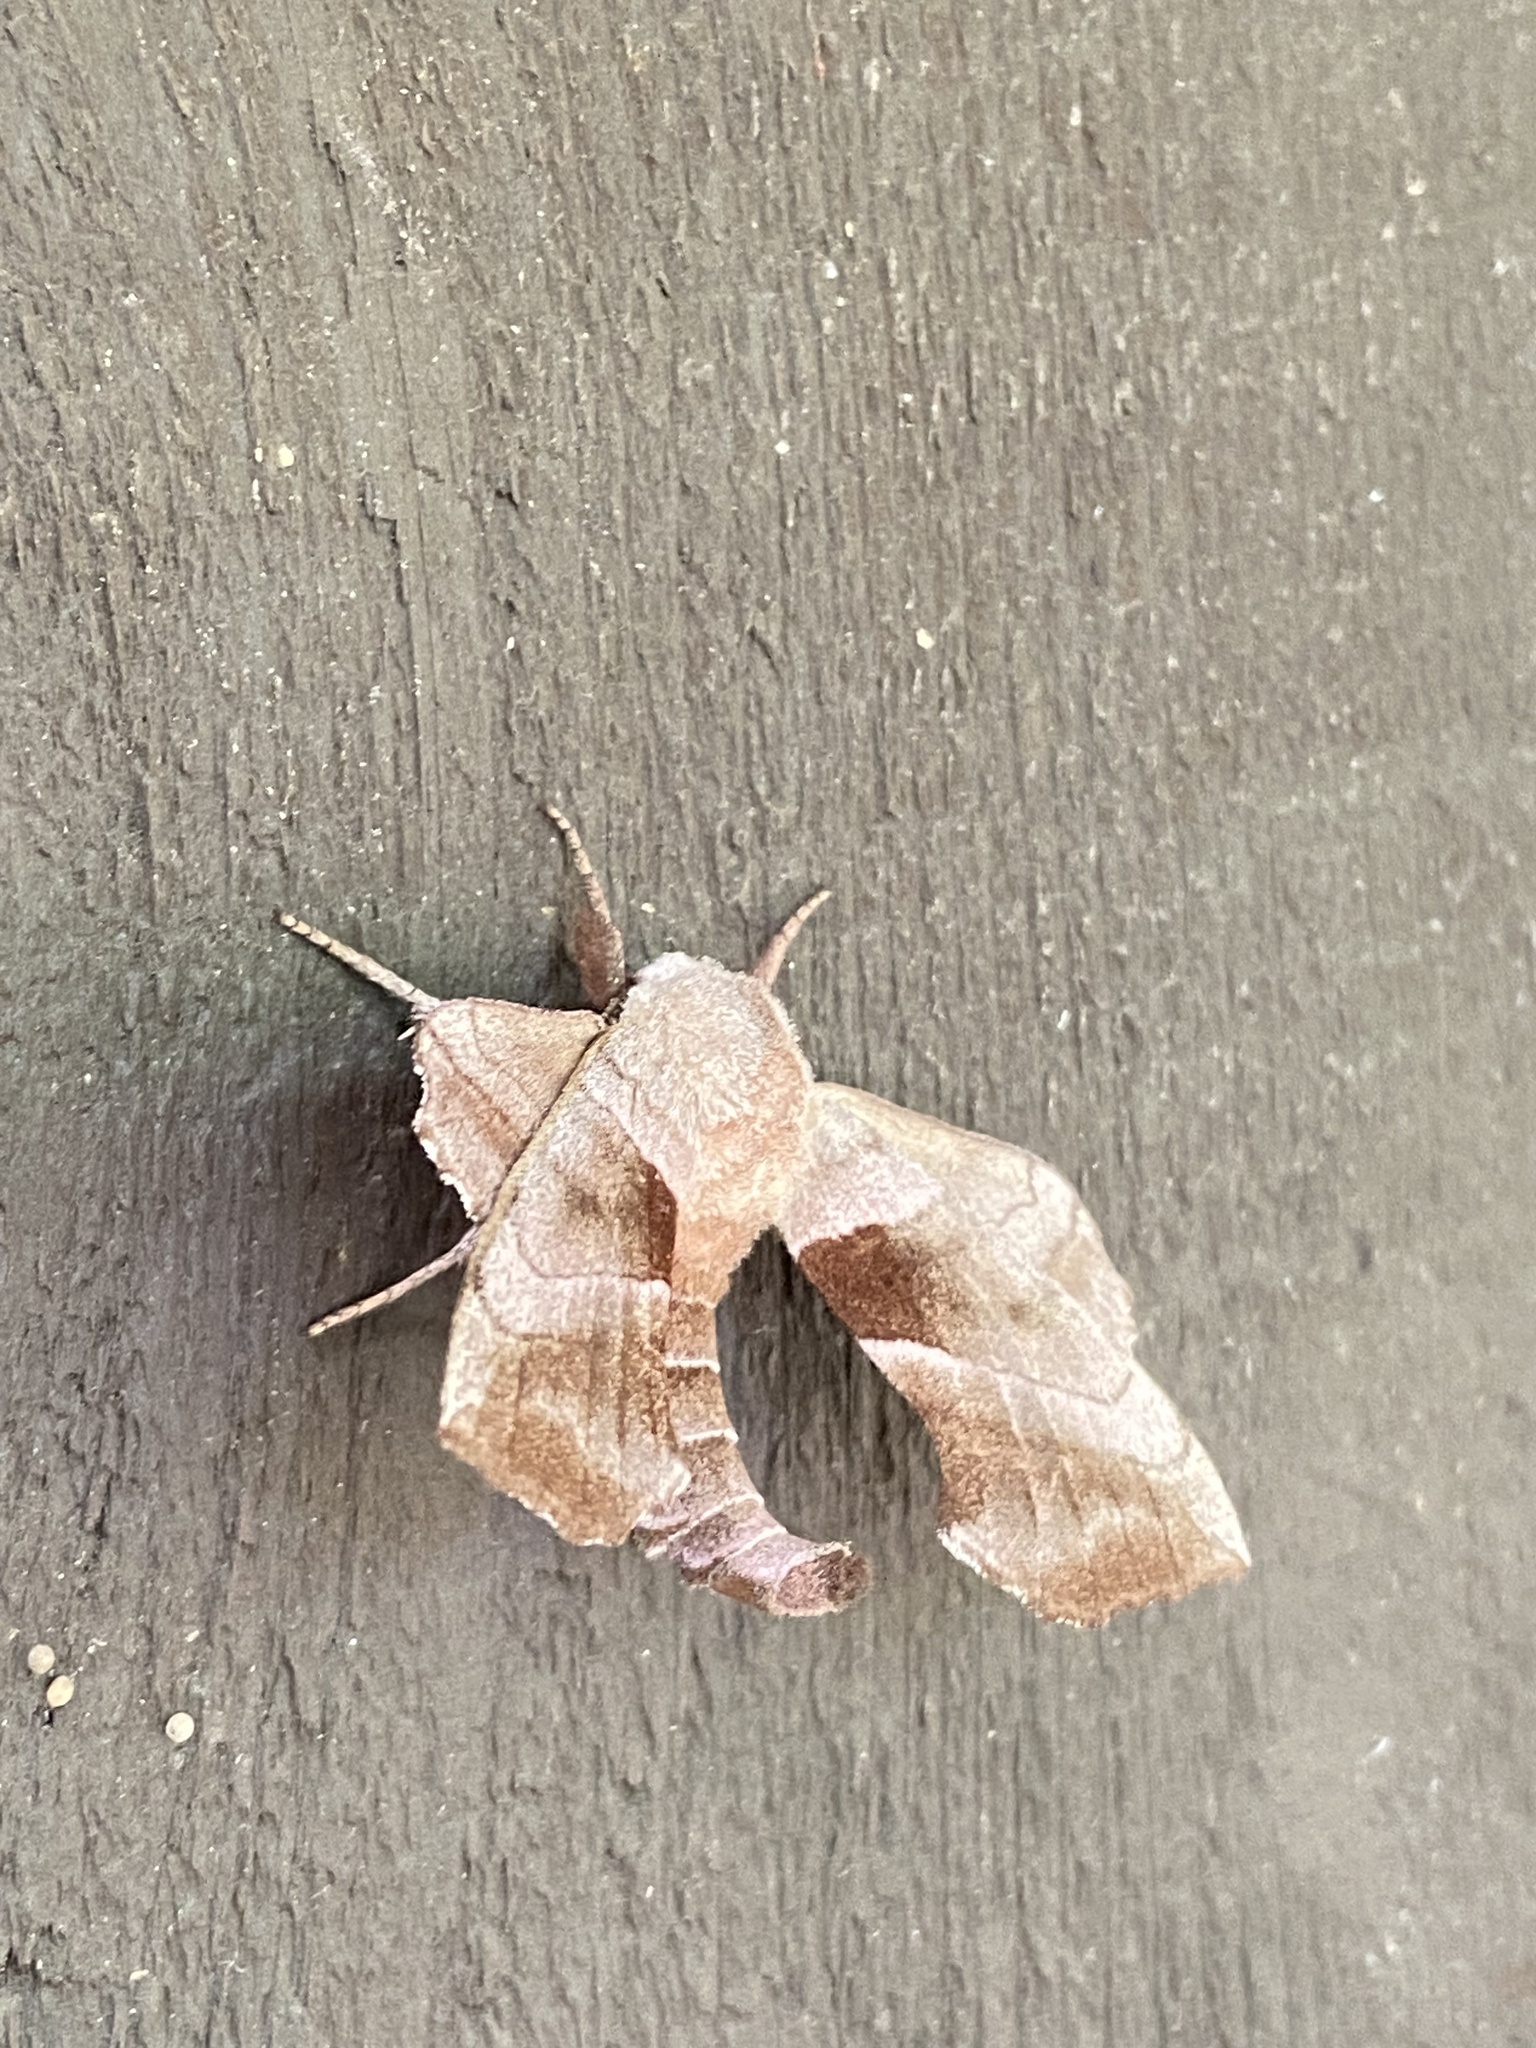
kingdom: Animalia
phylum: Arthropoda
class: Insecta
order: Lepidoptera
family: Sphingidae
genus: Amorpha
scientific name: Amorpha juglandis
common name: Walnut sphinx
